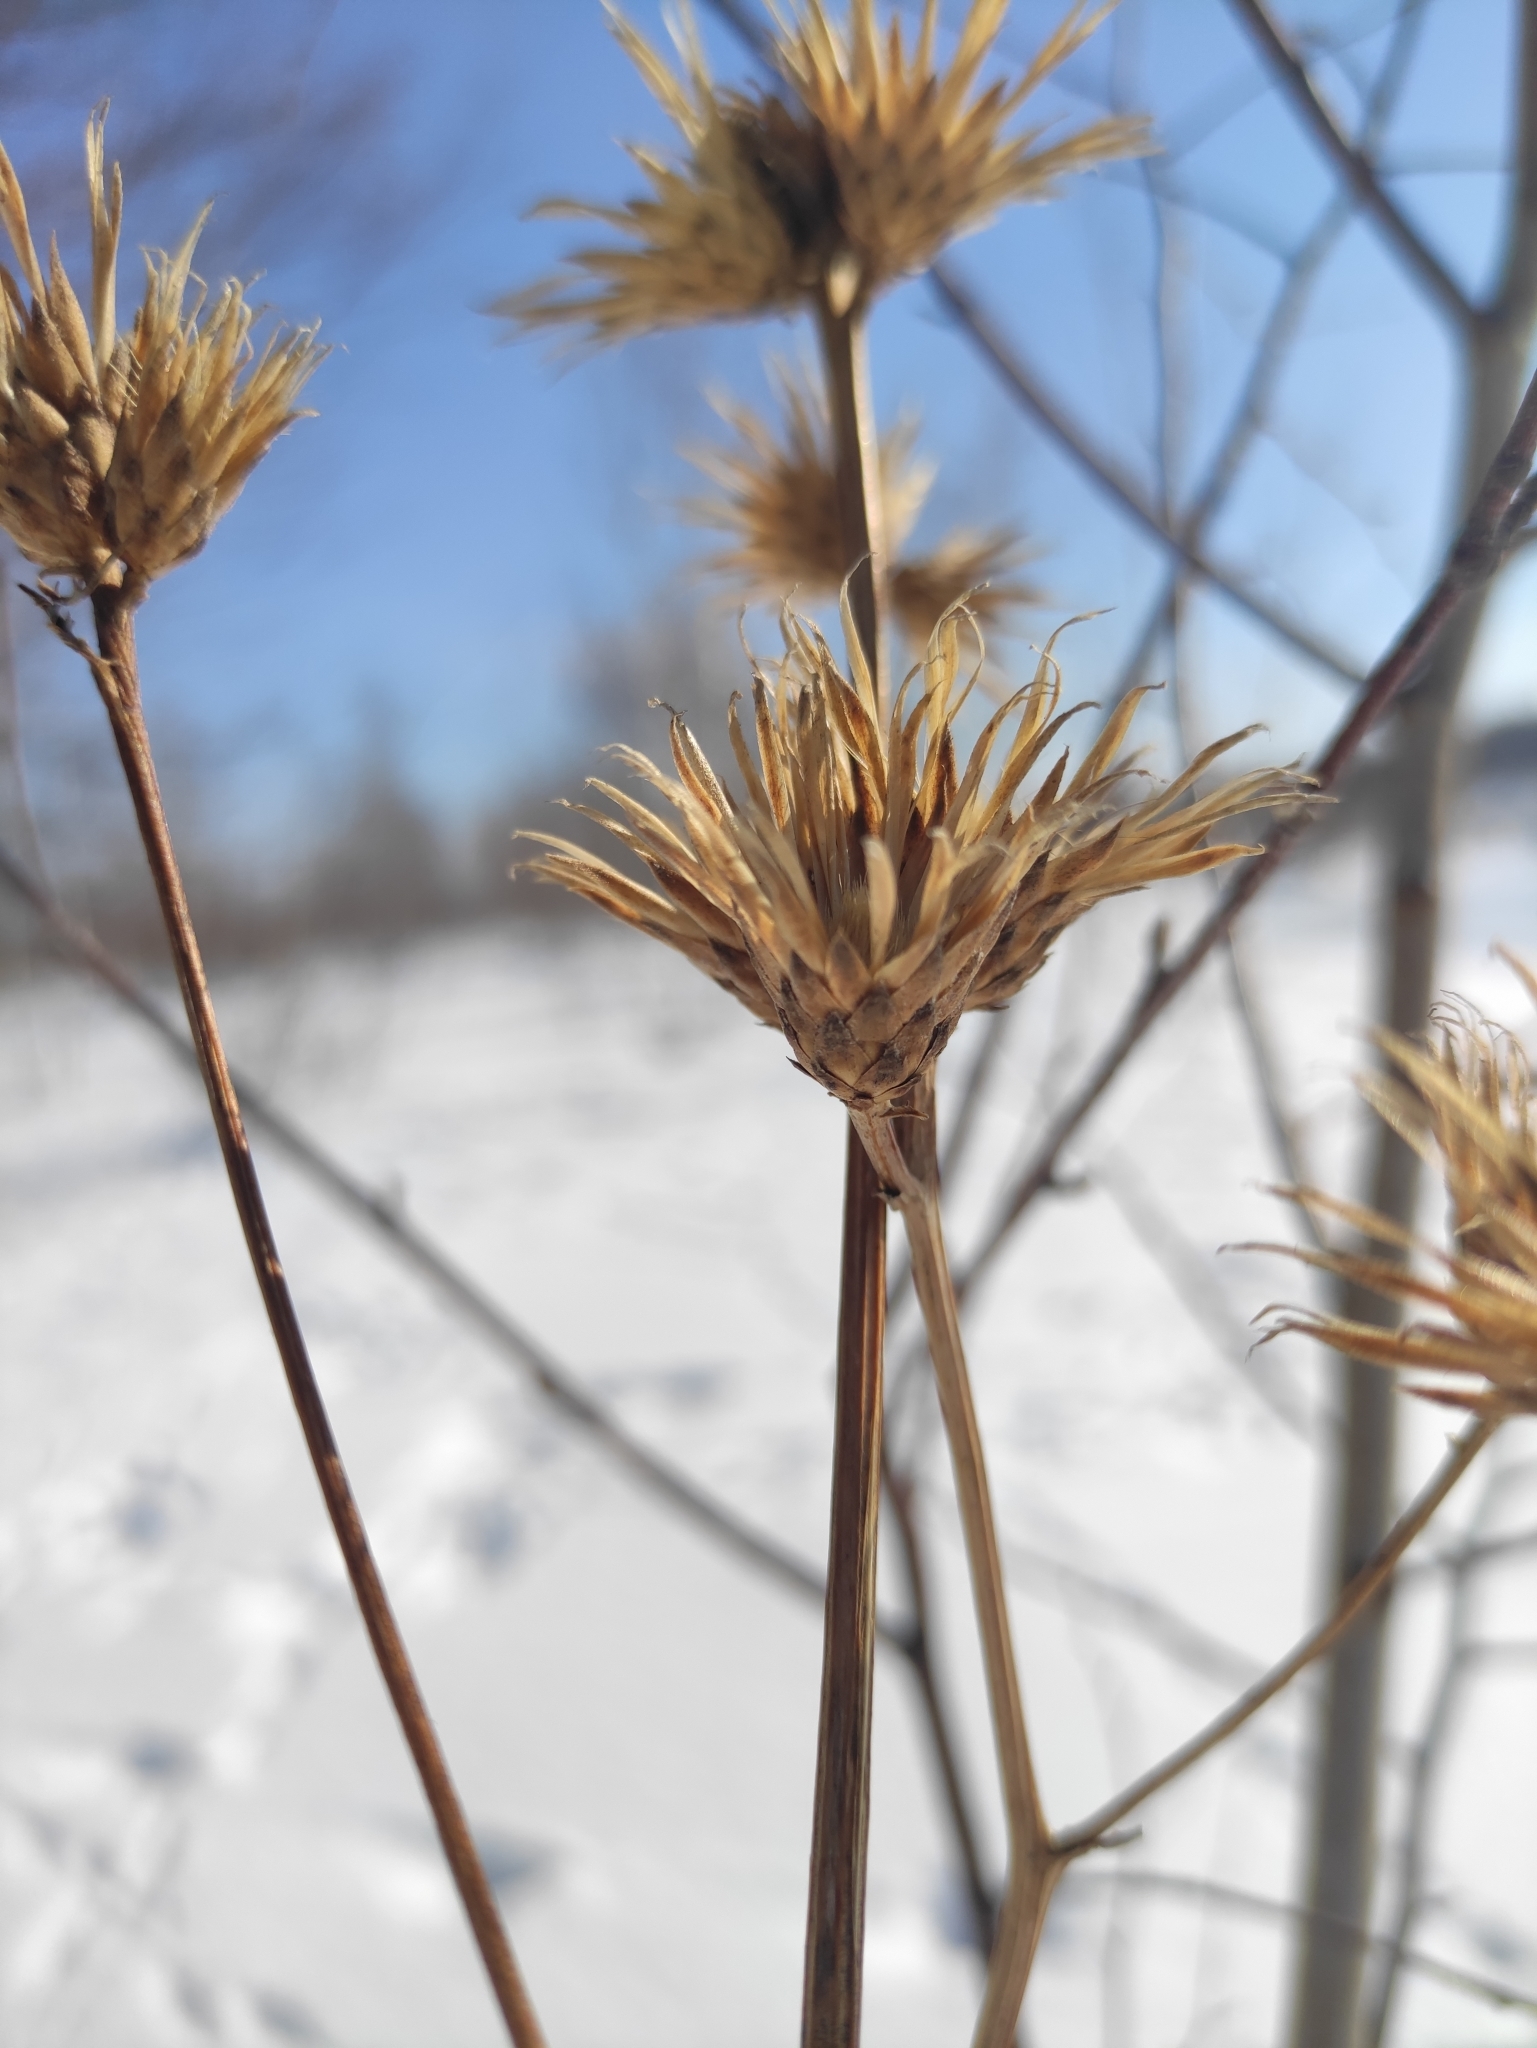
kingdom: Plantae
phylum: Tracheophyta
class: Magnoliopsida
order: Asterales
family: Asteraceae
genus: Serratula
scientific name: Serratula coronata
